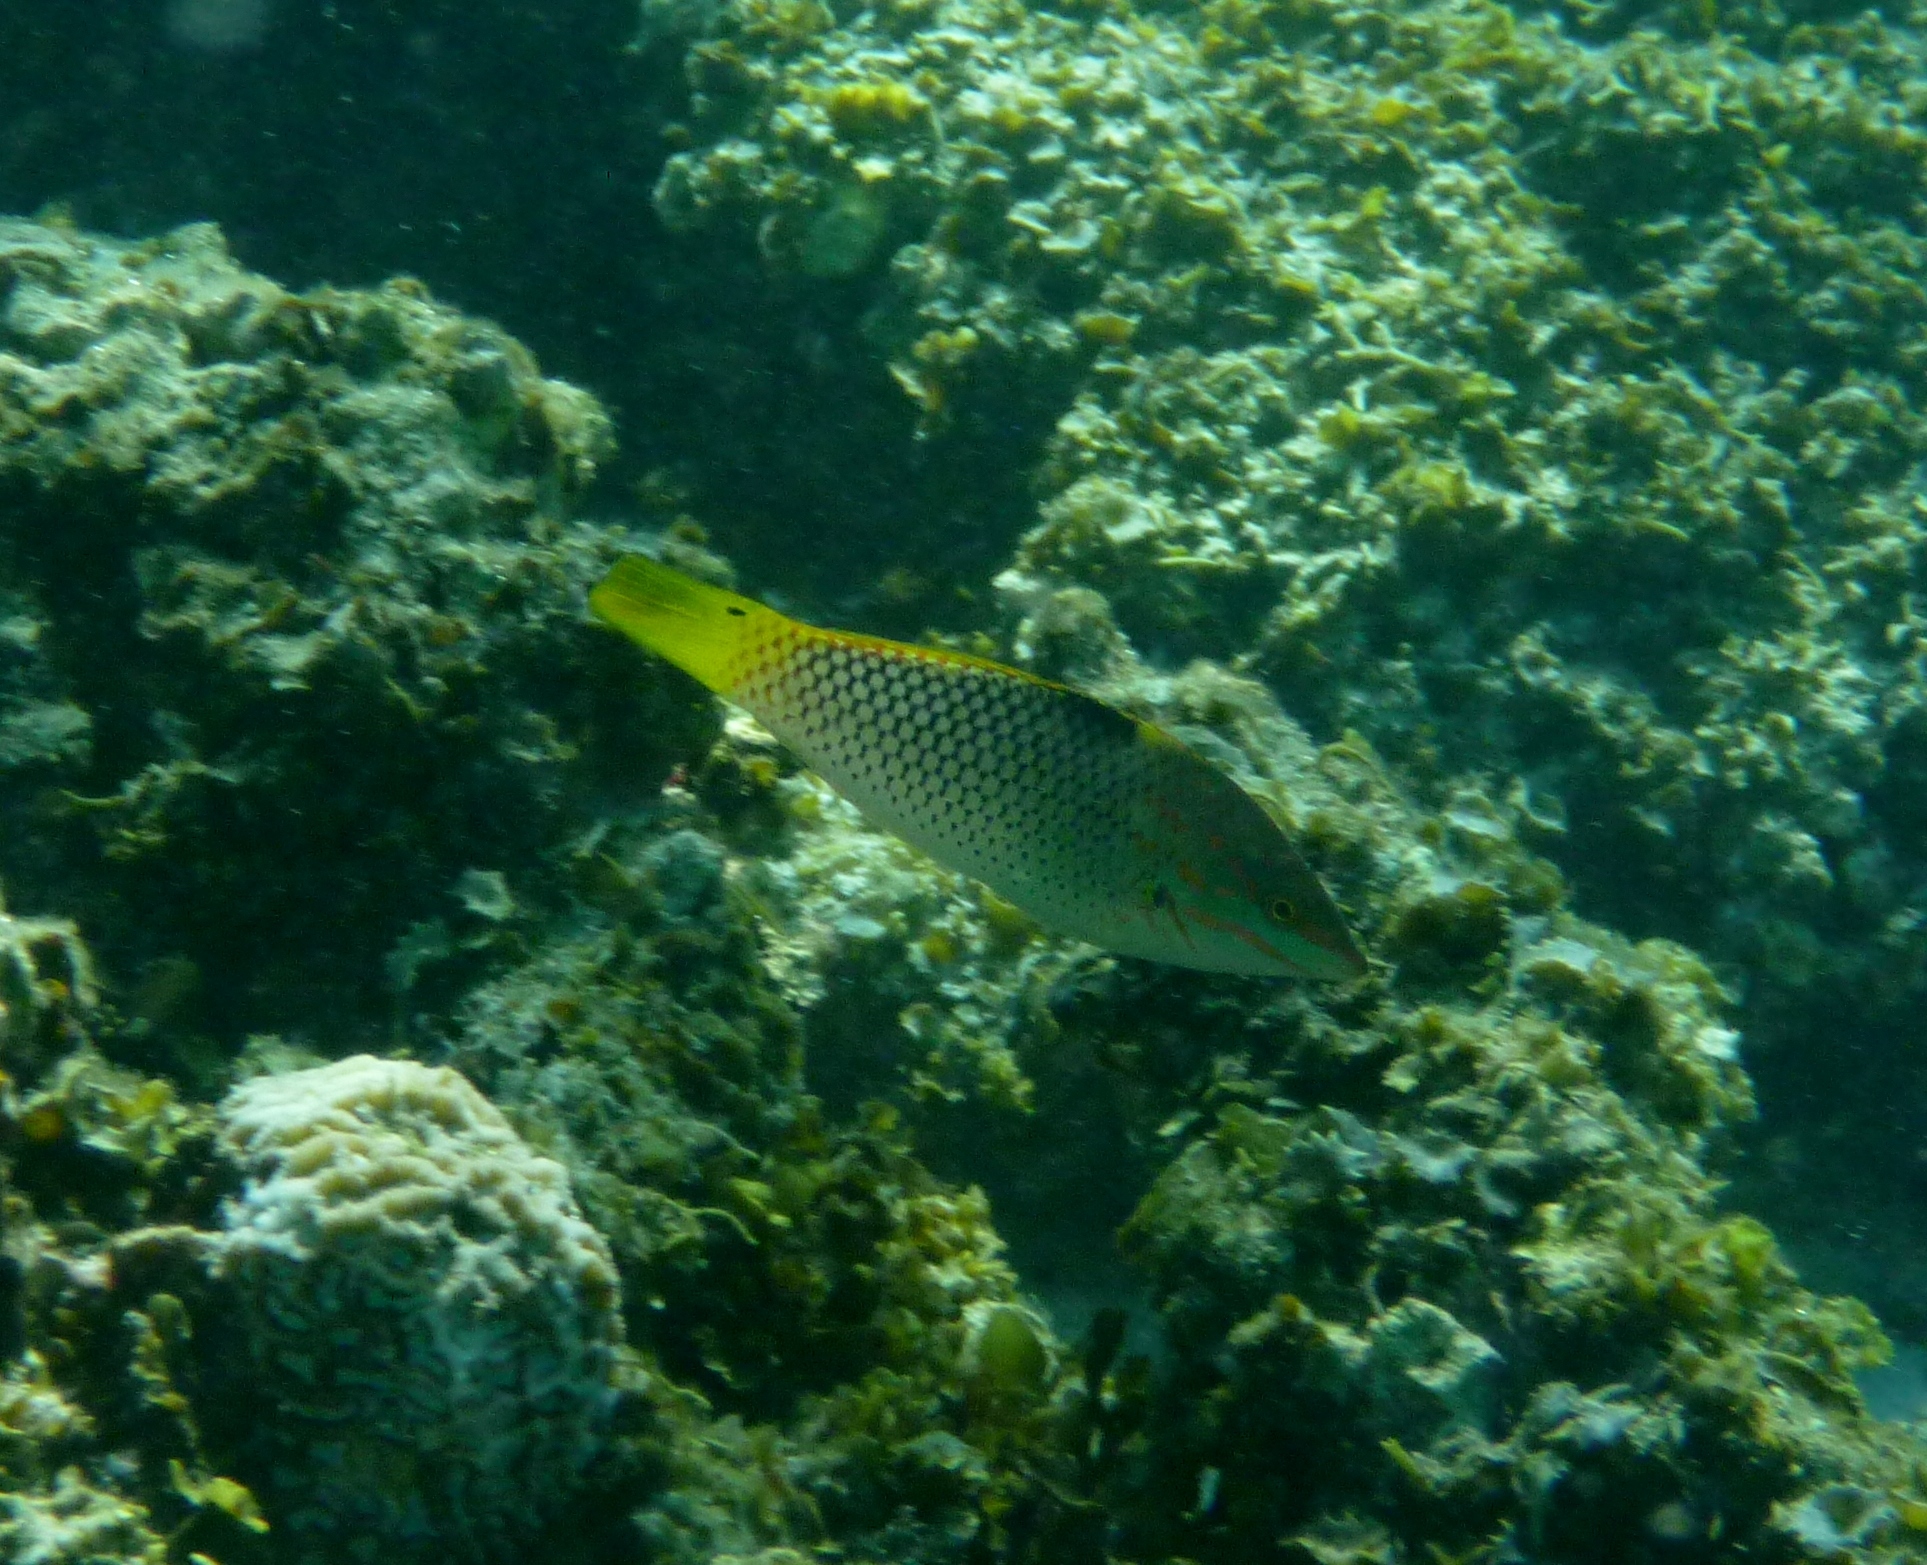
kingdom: Animalia
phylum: Chordata
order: Perciformes
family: Labridae
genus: Halichoeres
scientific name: Halichoeres hortulanus
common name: Checkerboard wrasse
